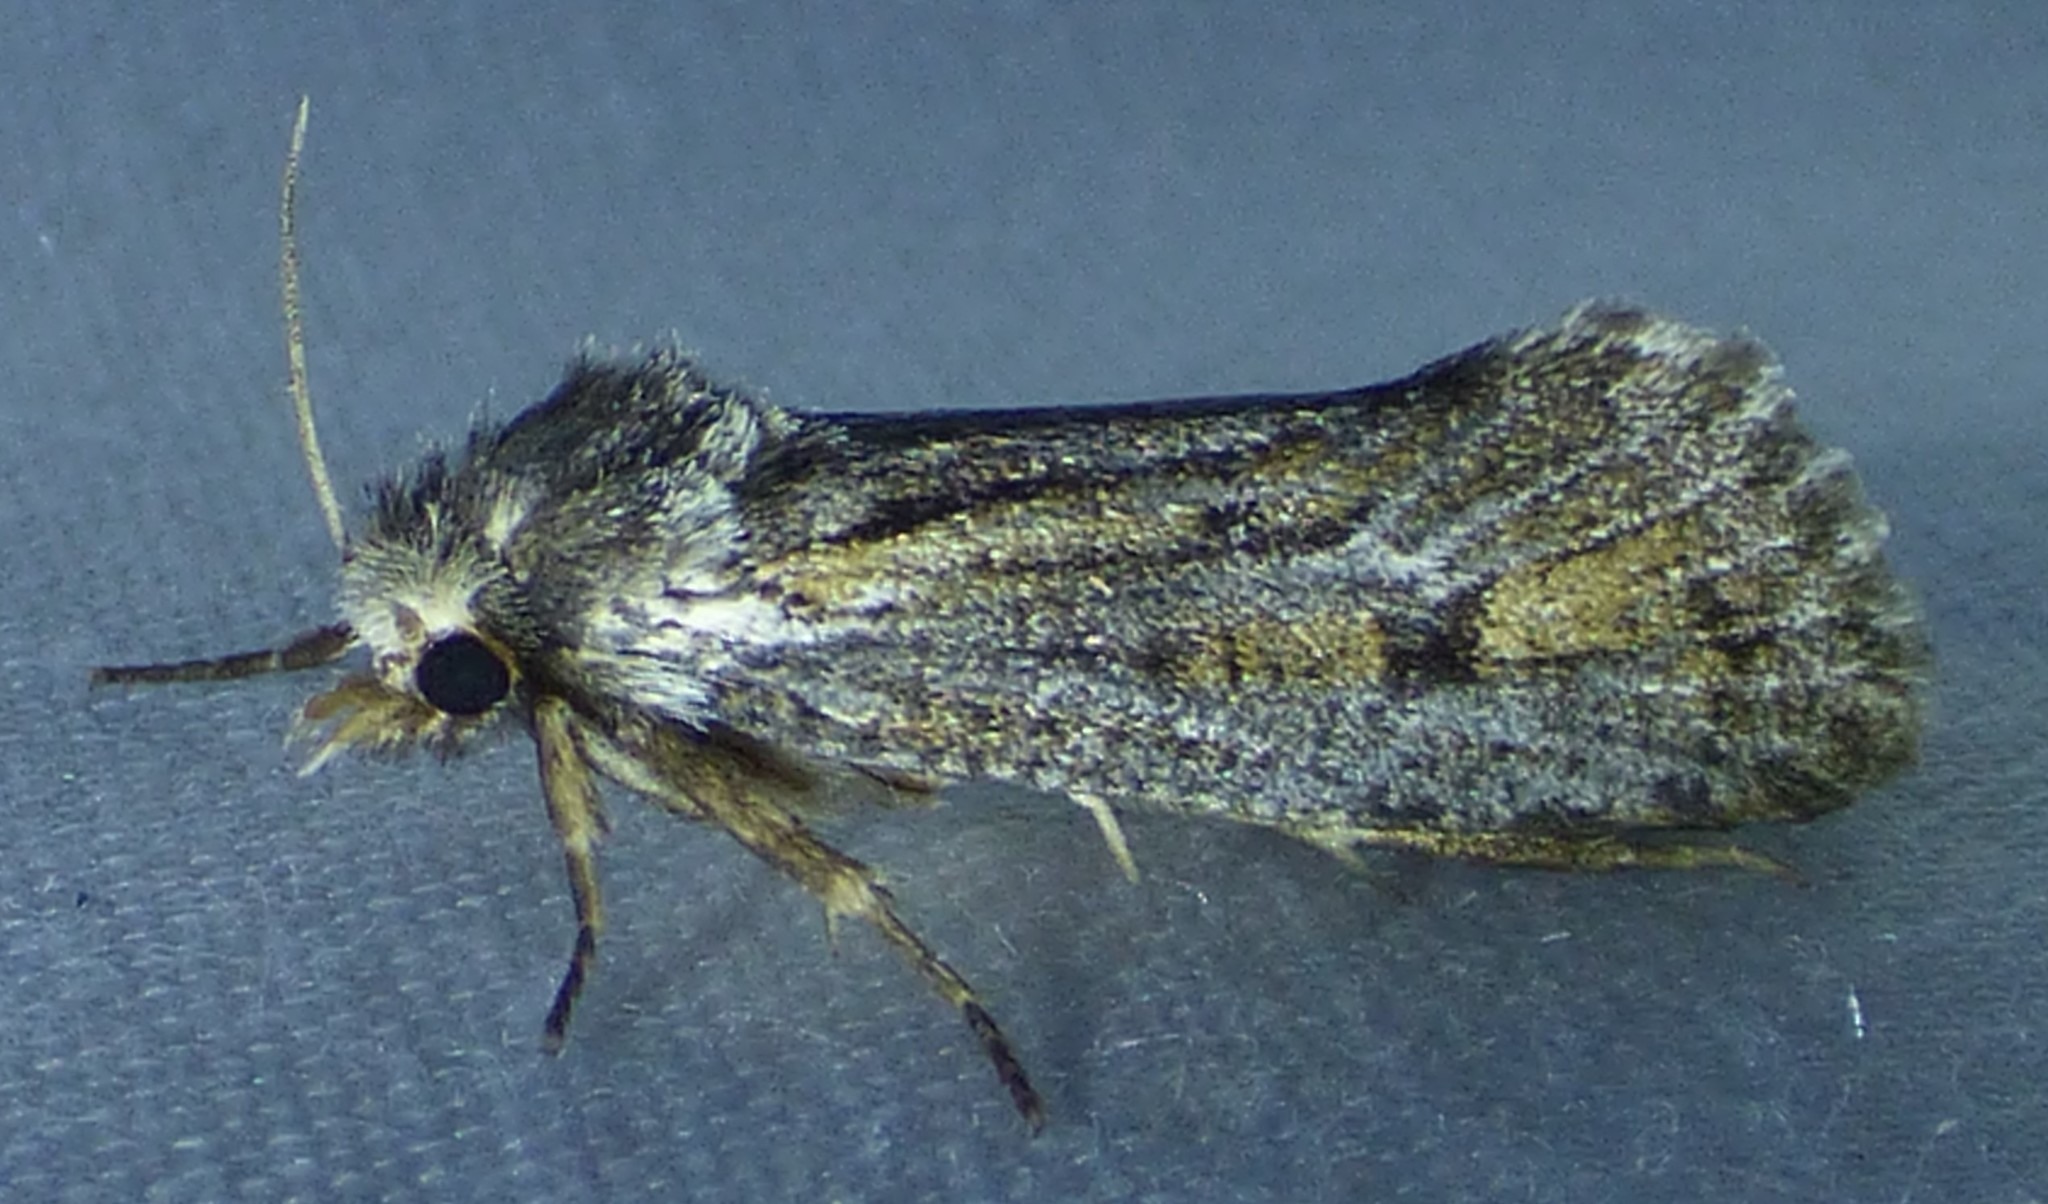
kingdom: Animalia
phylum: Arthropoda
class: Insecta
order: Lepidoptera
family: Tineidae
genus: Acrolophus
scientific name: Acrolophus popeanella
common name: Clemens' grass tubeworm moth
